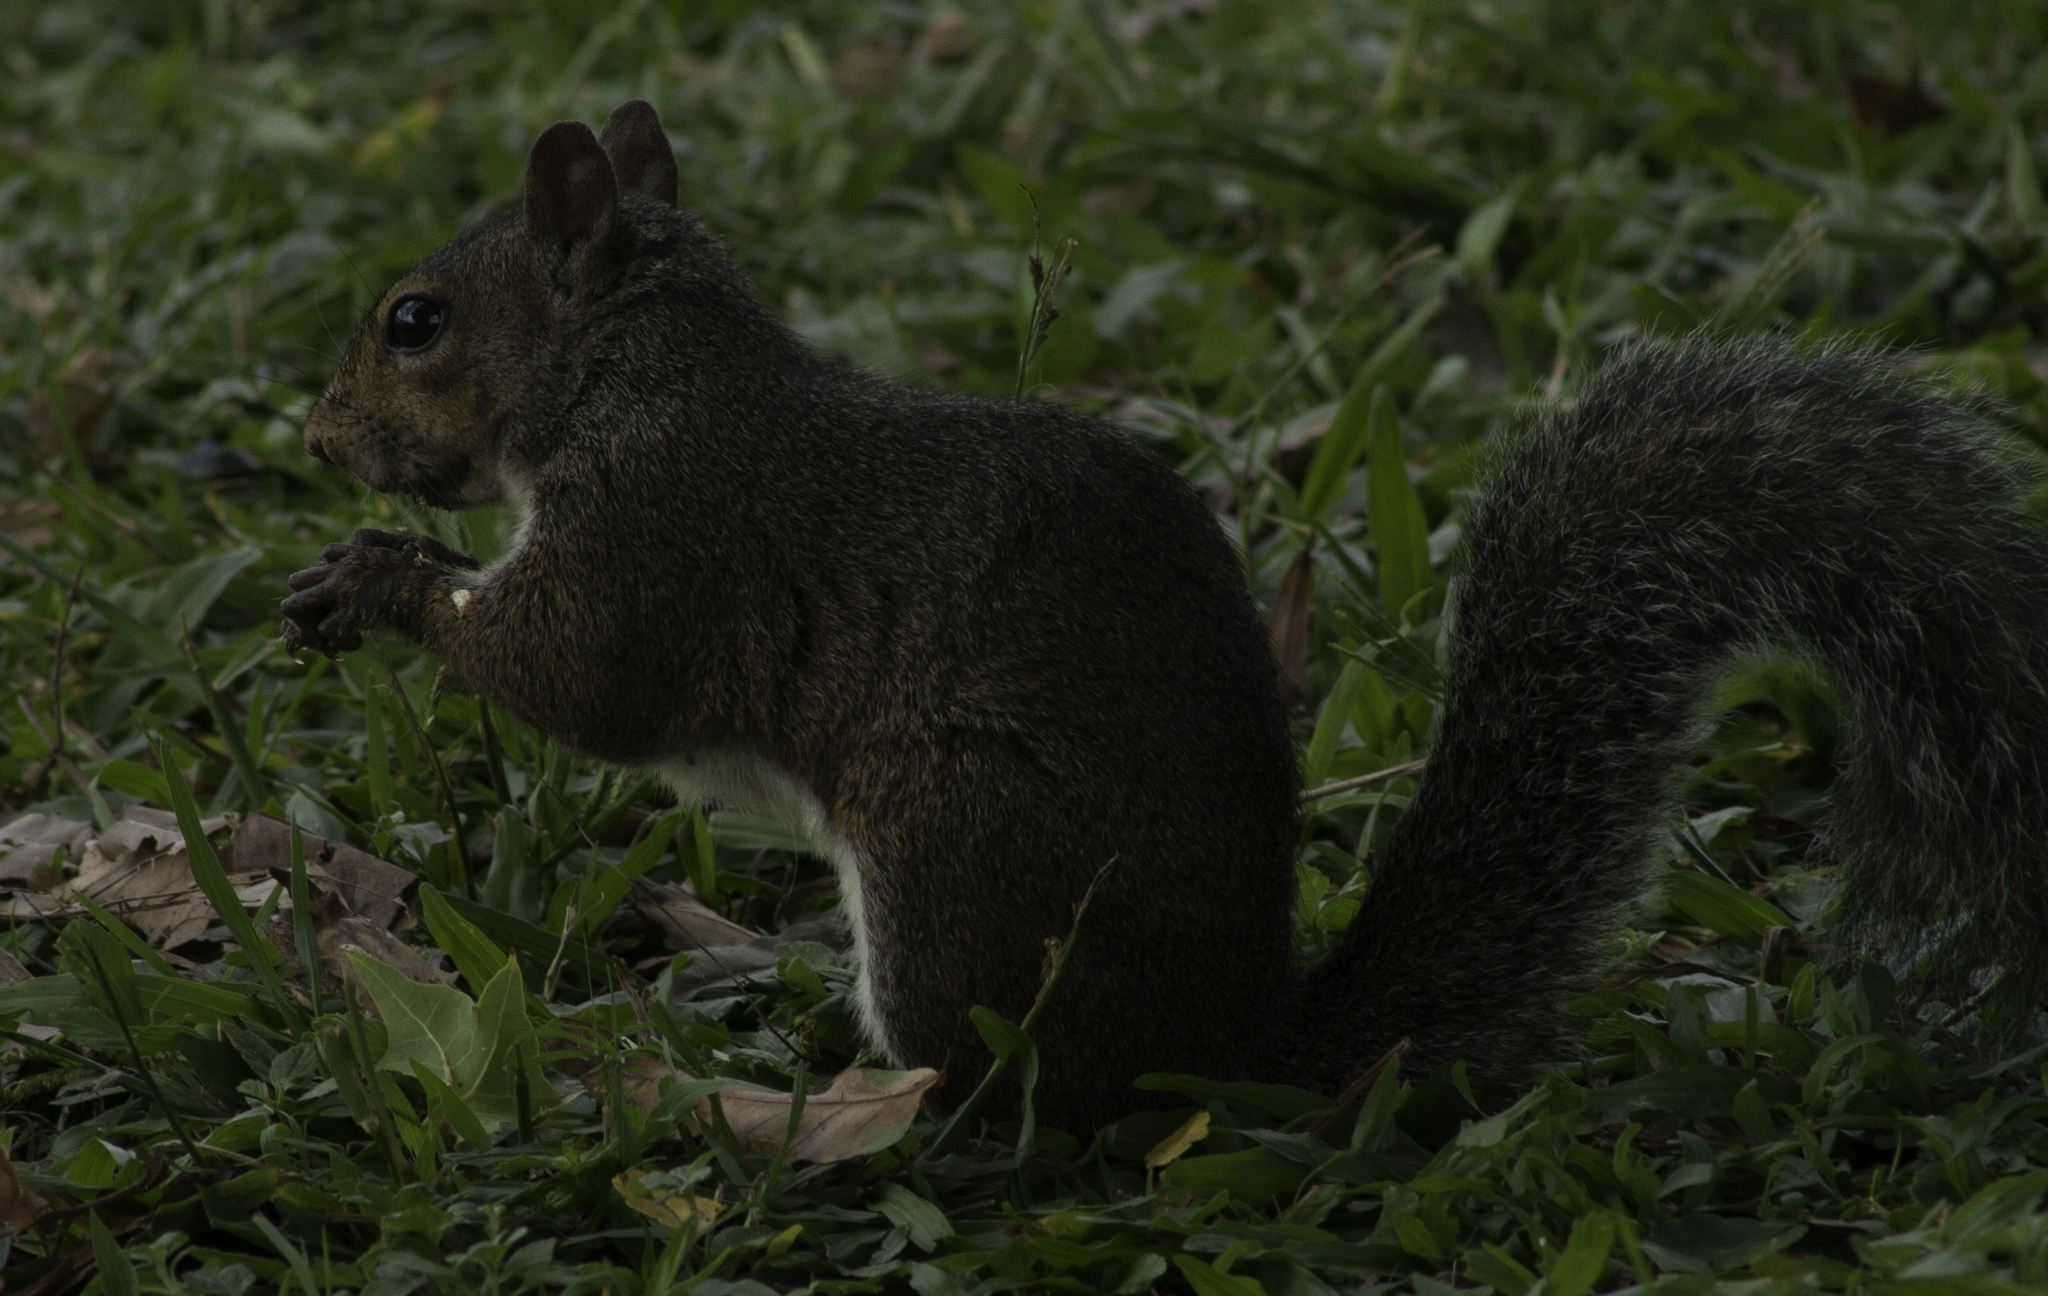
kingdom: Animalia
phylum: Chordata
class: Mammalia
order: Rodentia
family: Sciuridae
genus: Sciurus
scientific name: Sciurus carolinensis
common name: Eastern gray squirrel
